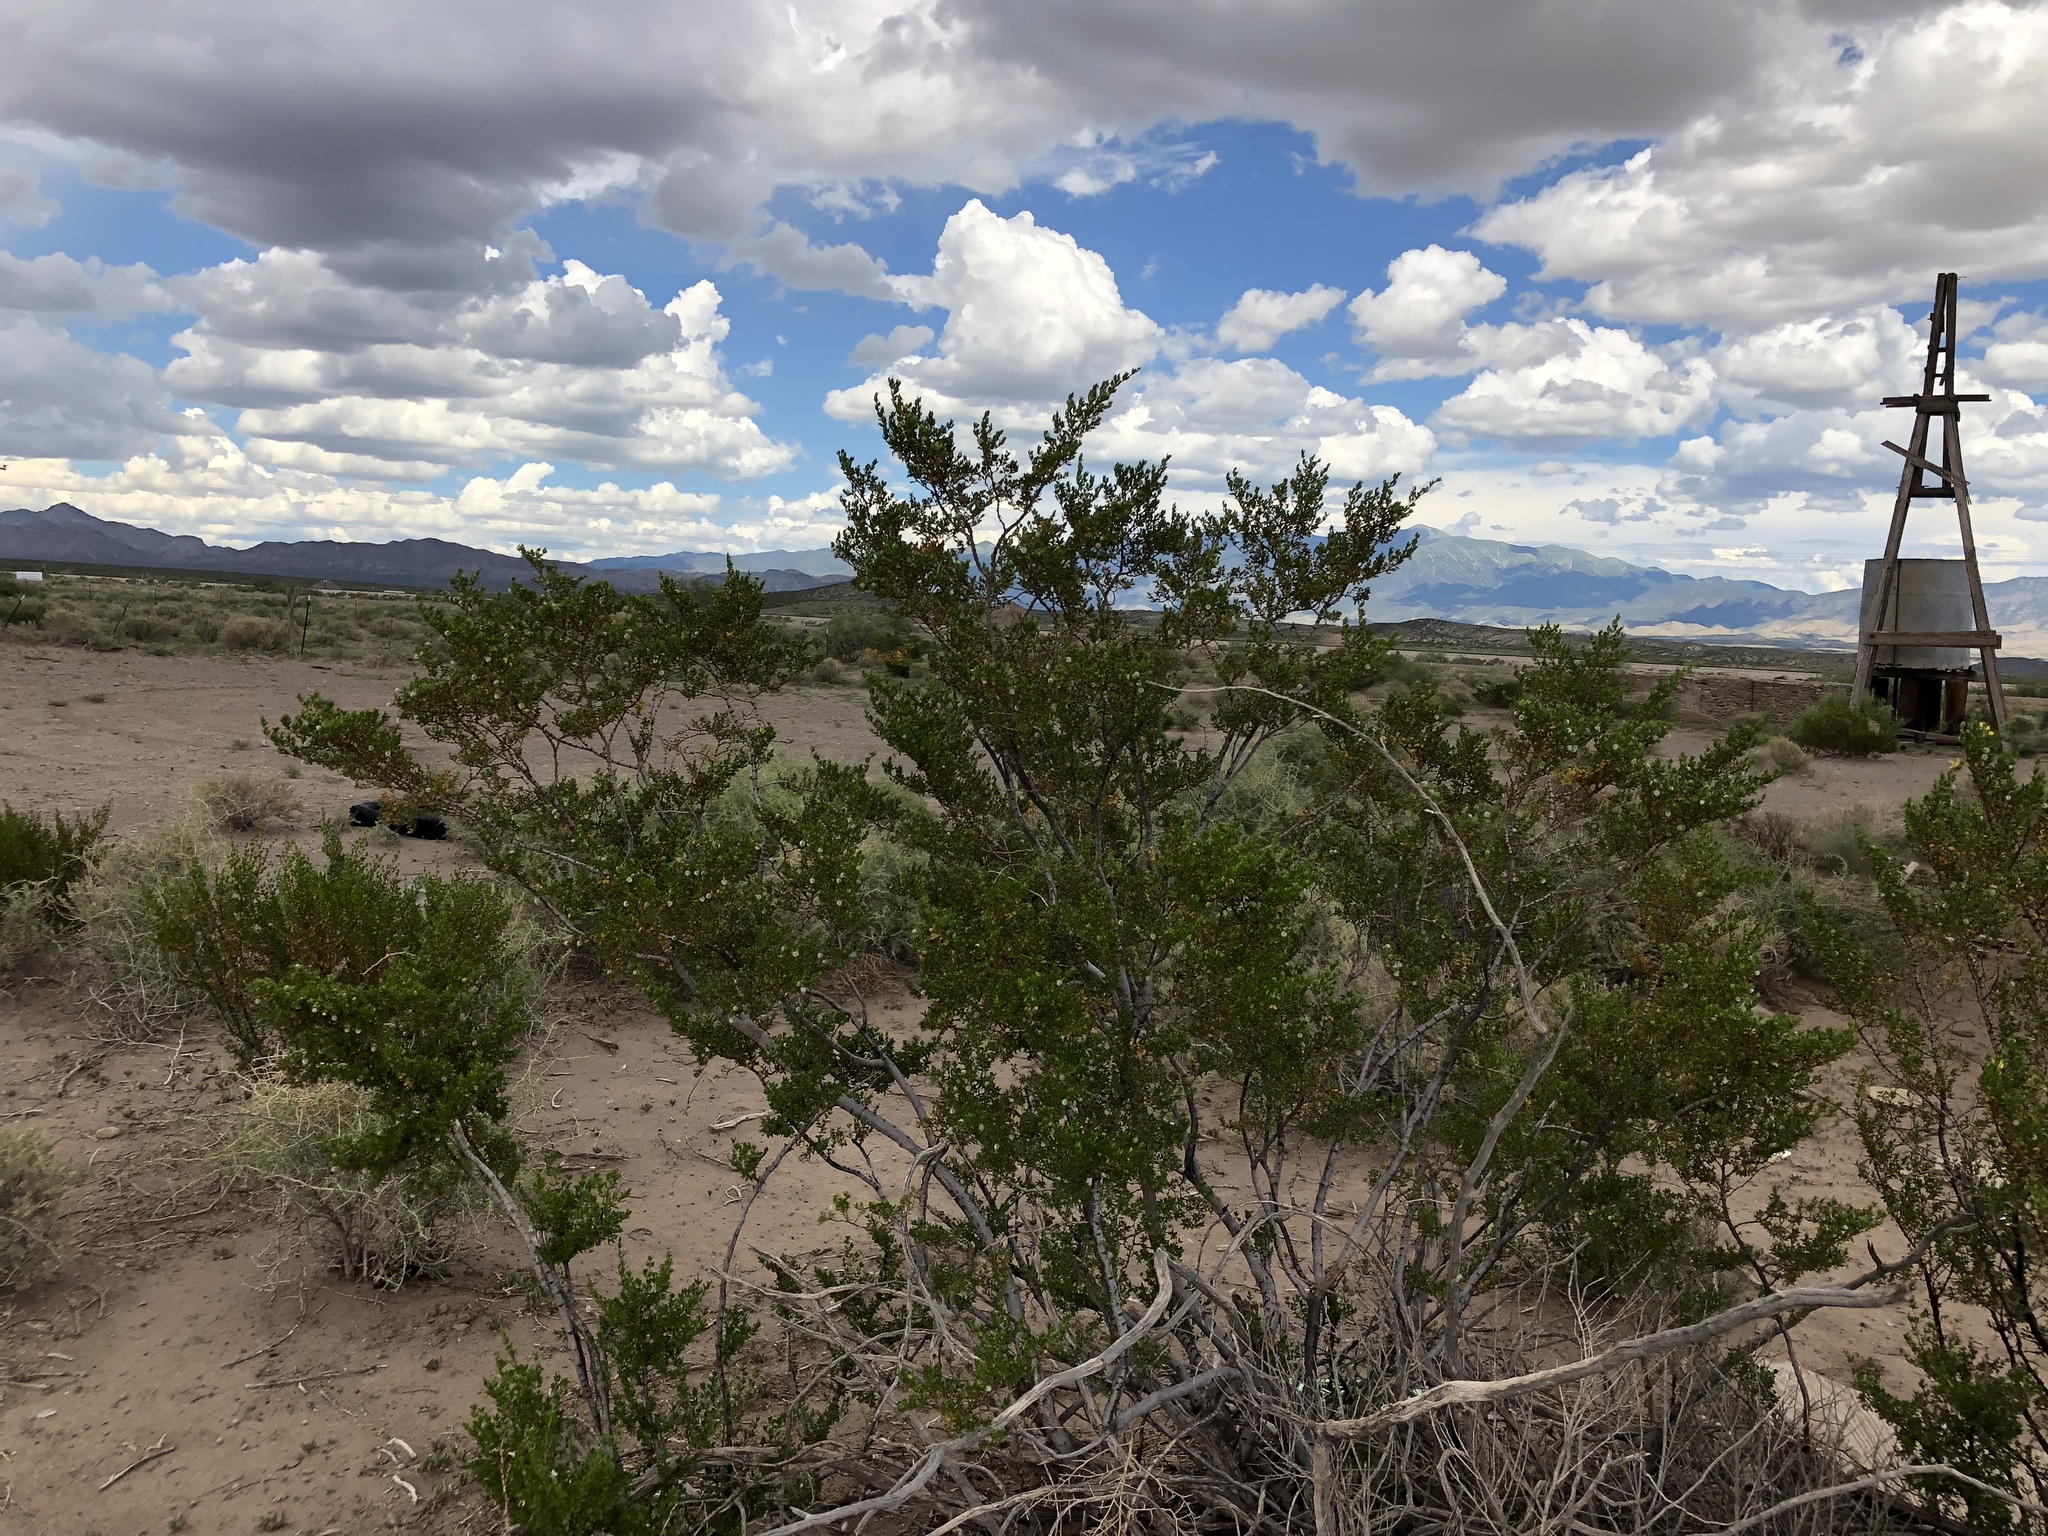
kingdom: Plantae
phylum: Tracheophyta
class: Magnoliopsida
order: Zygophyllales
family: Zygophyllaceae
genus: Larrea
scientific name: Larrea tridentata
